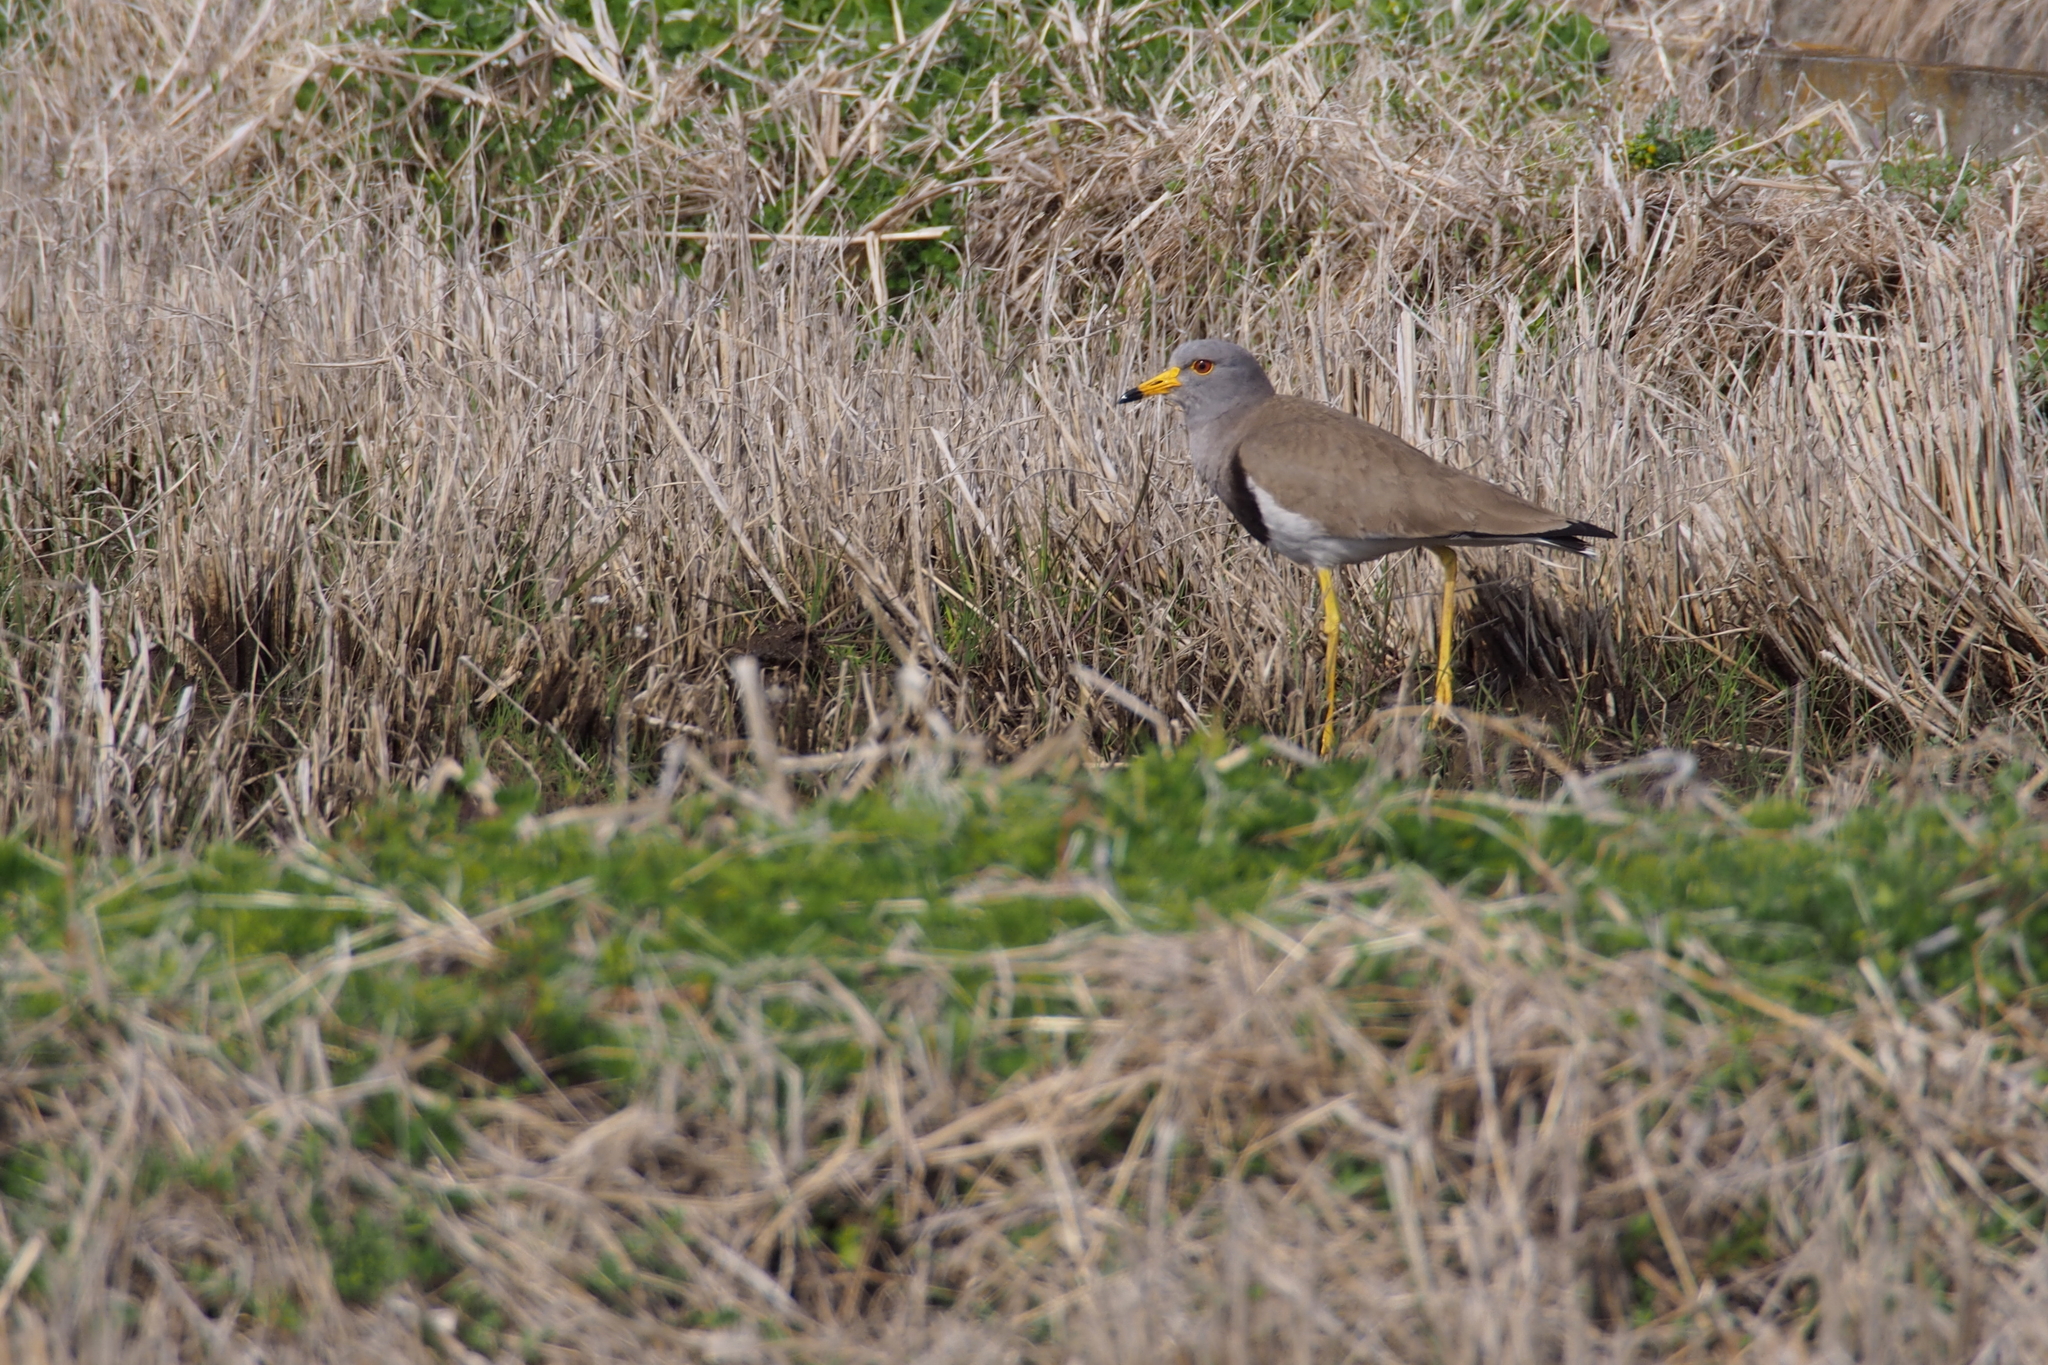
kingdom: Animalia
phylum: Chordata
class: Aves
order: Charadriiformes
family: Charadriidae
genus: Vanellus
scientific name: Vanellus cinereus
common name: Grey-headed lapwing
